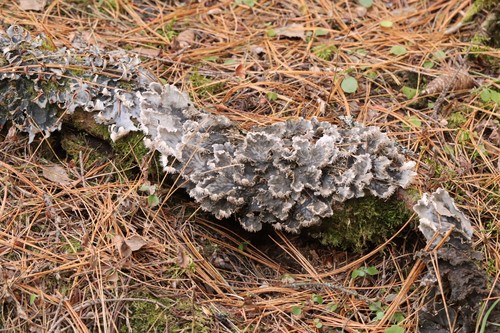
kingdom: Fungi
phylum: Ascomycota
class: Lecanoromycetes
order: Peltigerales
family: Peltigeraceae
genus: Peltigera
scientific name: Peltigera canina
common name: Dog pelt lichen
